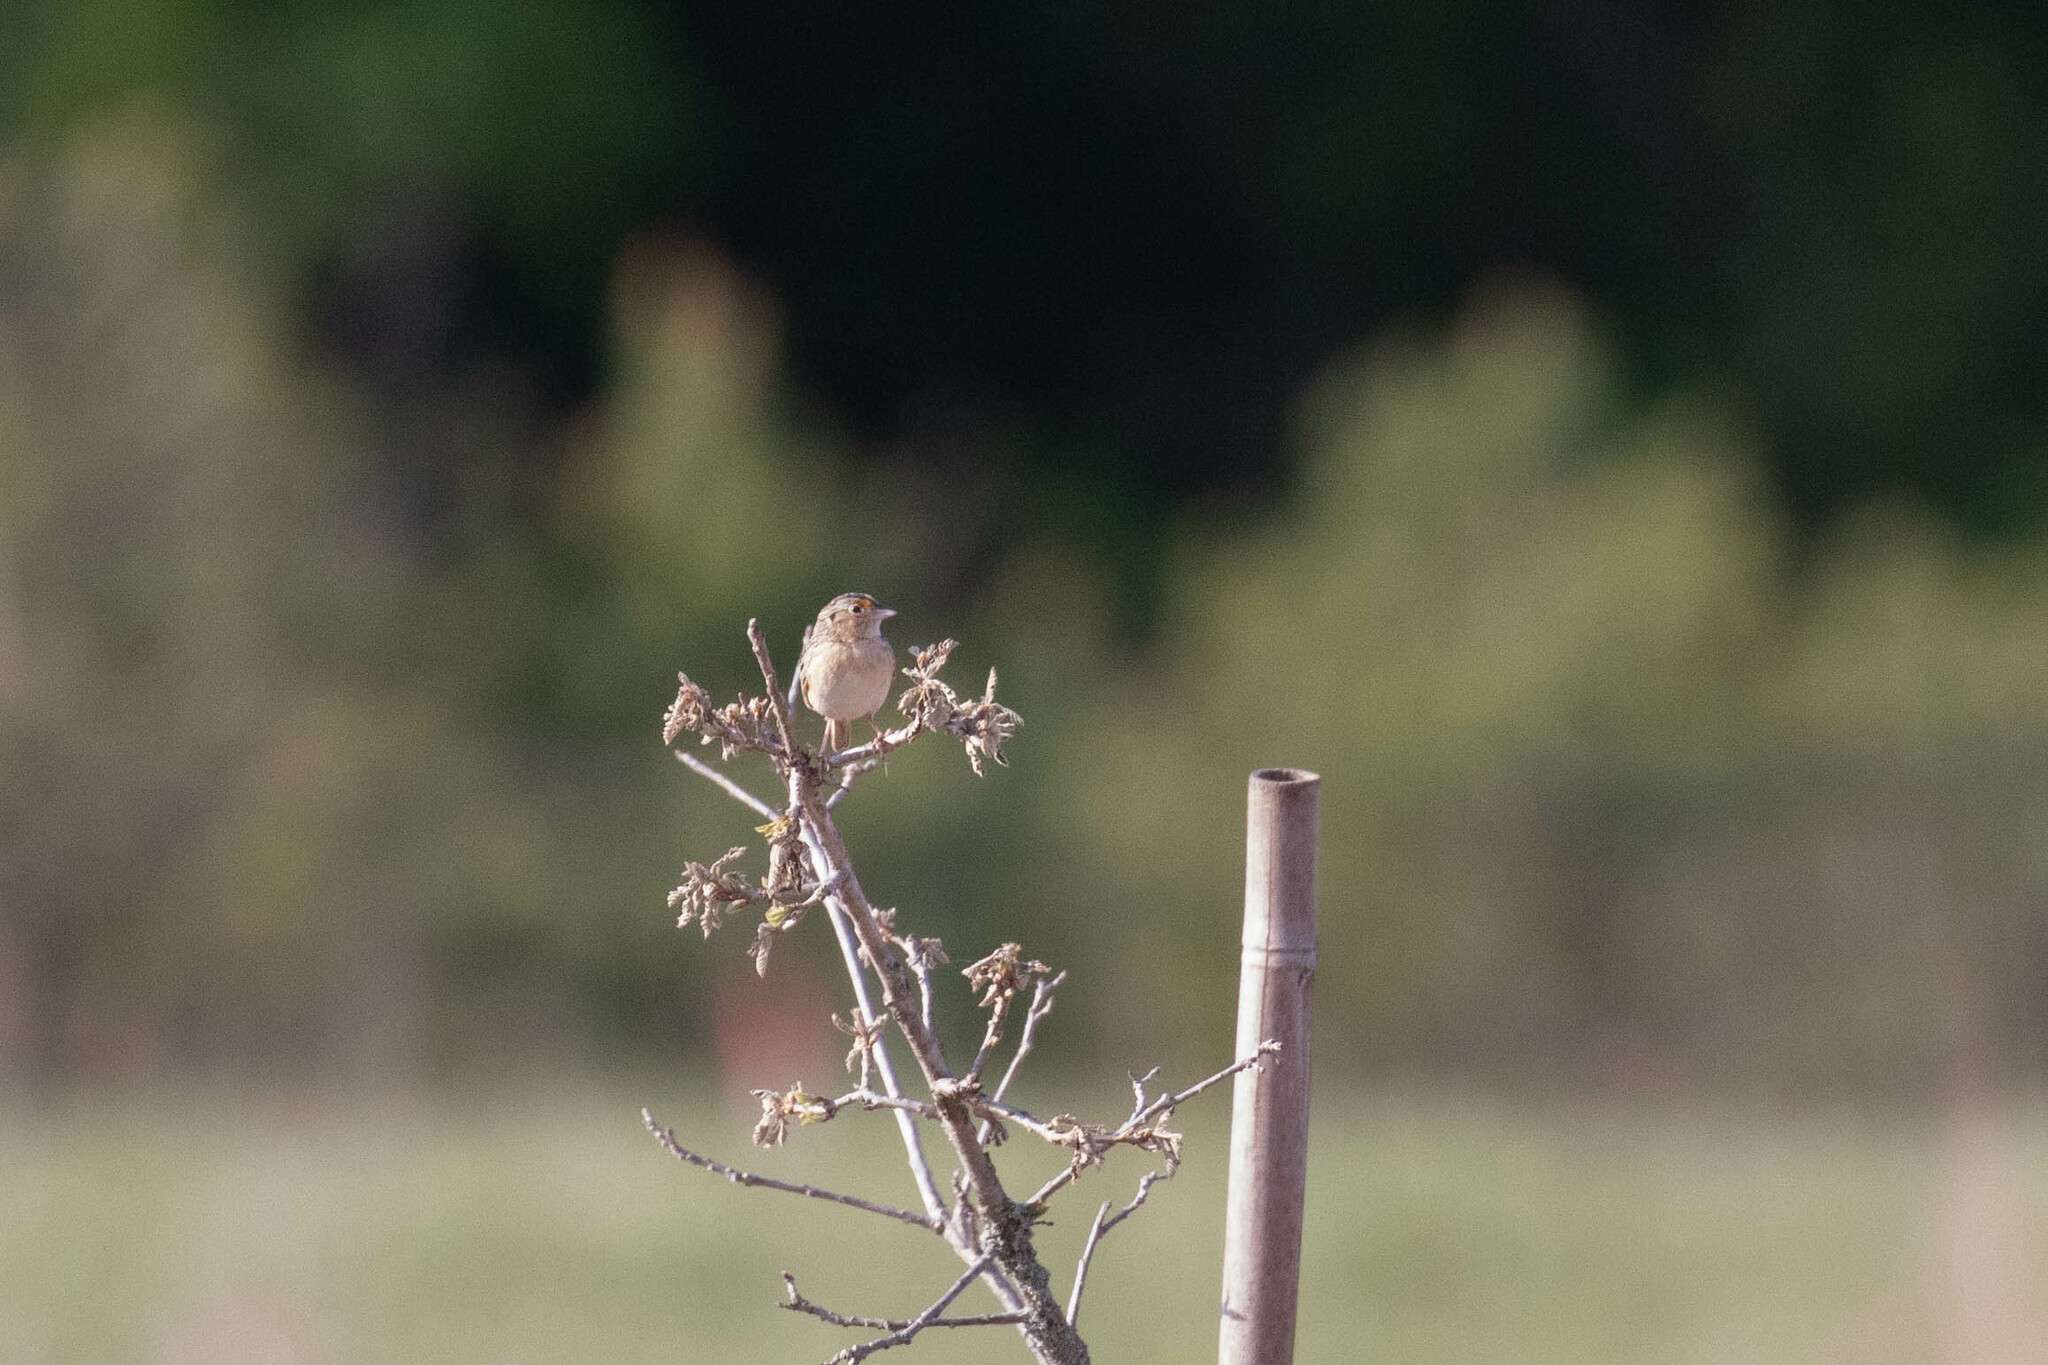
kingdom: Animalia
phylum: Chordata
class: Aves
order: Passeriformes
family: Passerellidae
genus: Ammodramus
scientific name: Ammodramus savannarum
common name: Grasshopper sparrow
